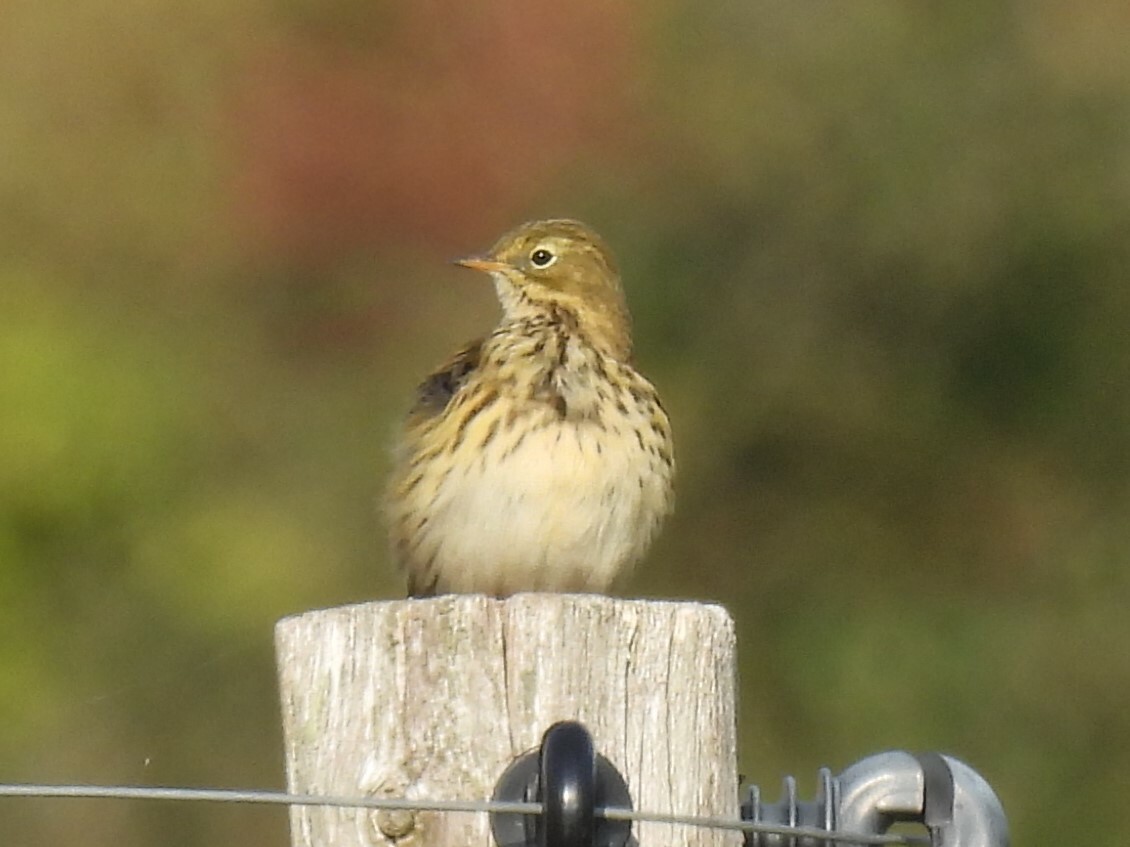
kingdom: Animalia
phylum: Chordata
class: Aves
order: Passeriformes
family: Motacillidae
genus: Anthus
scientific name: Anthus pratensis
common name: Meadow pipit
